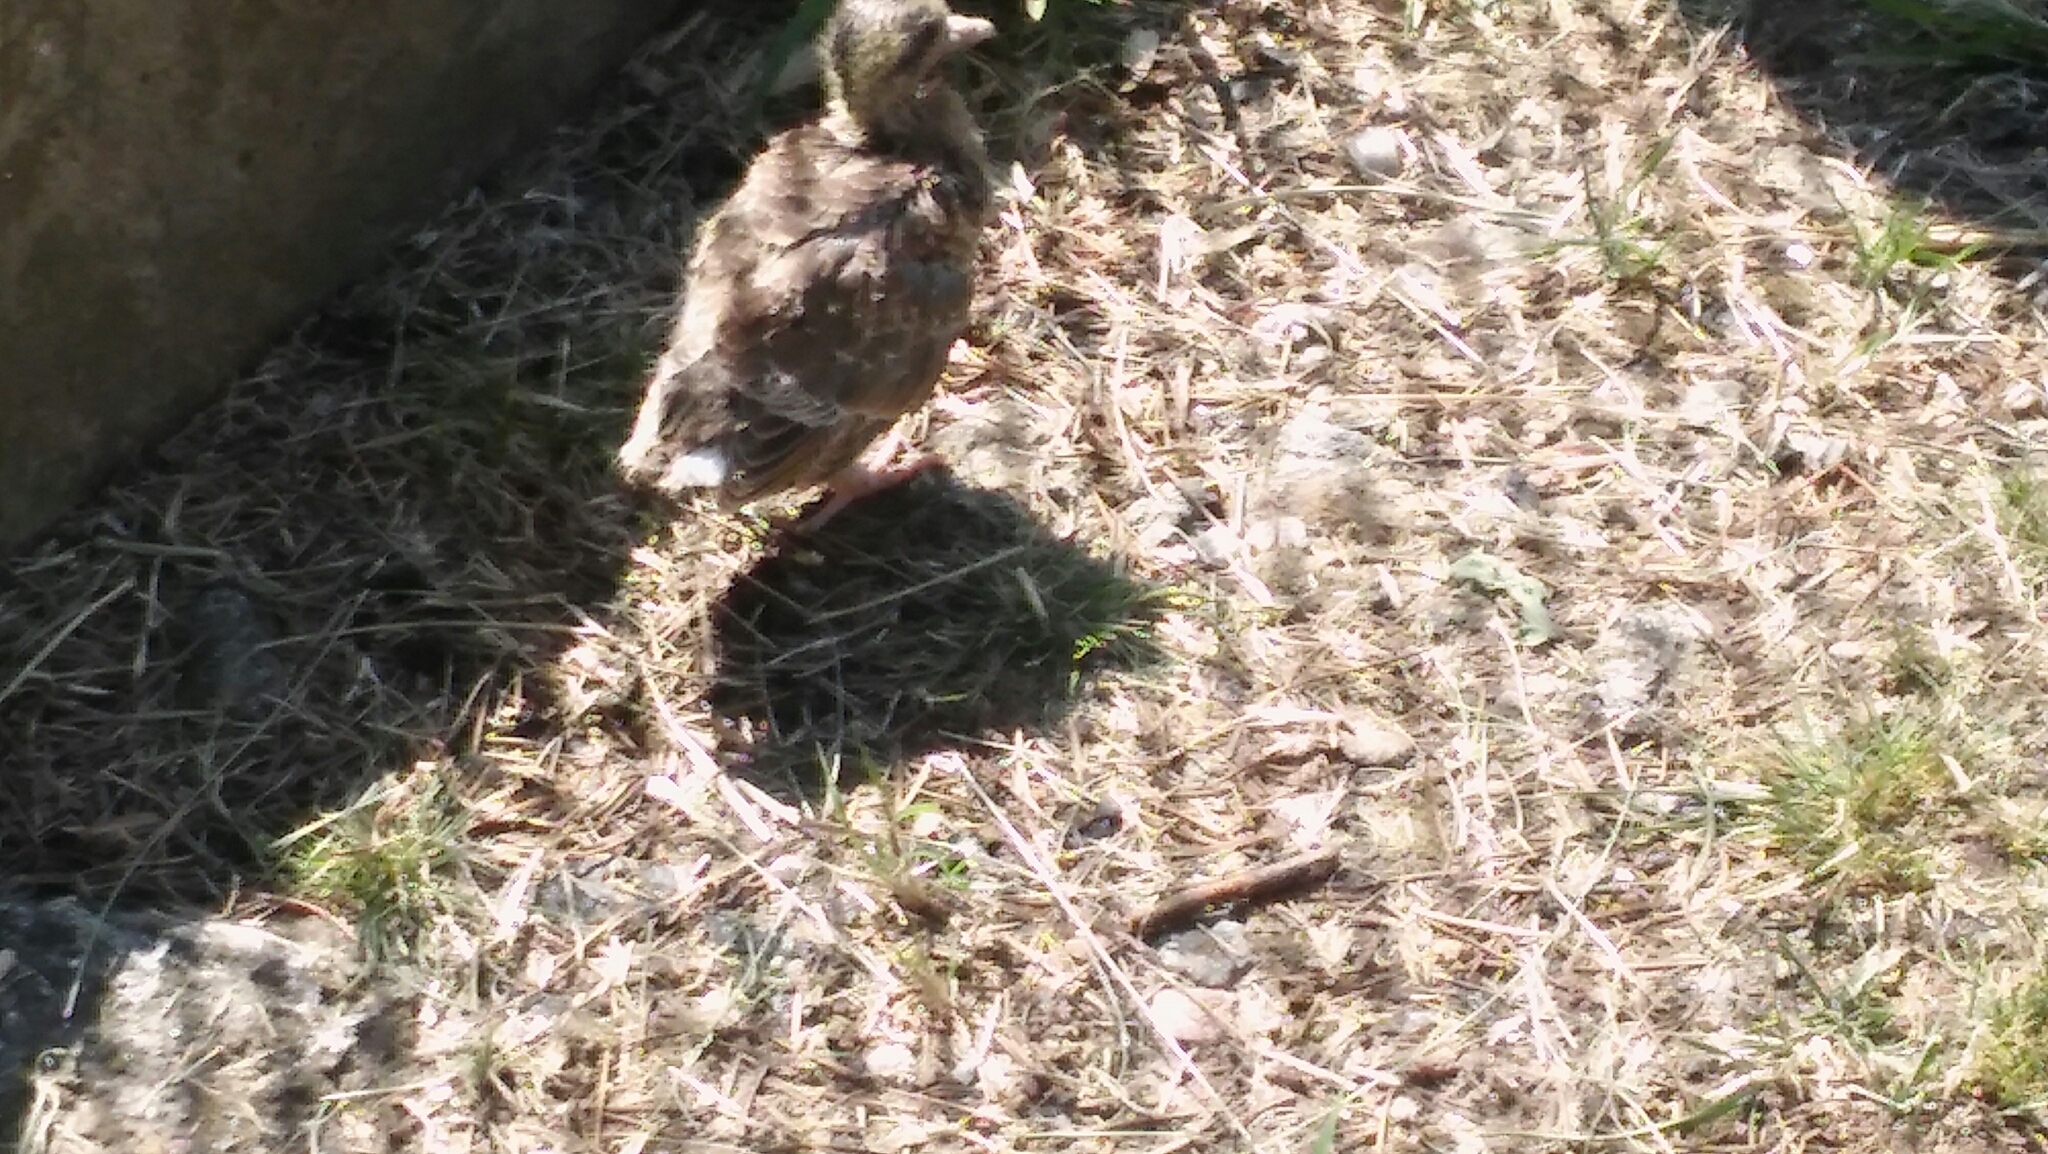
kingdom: Animalia
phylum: Chordata
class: Aves
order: Columbiformes
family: Columbidae
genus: Zenaida
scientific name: Zenaida auriculata
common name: Eared dove
